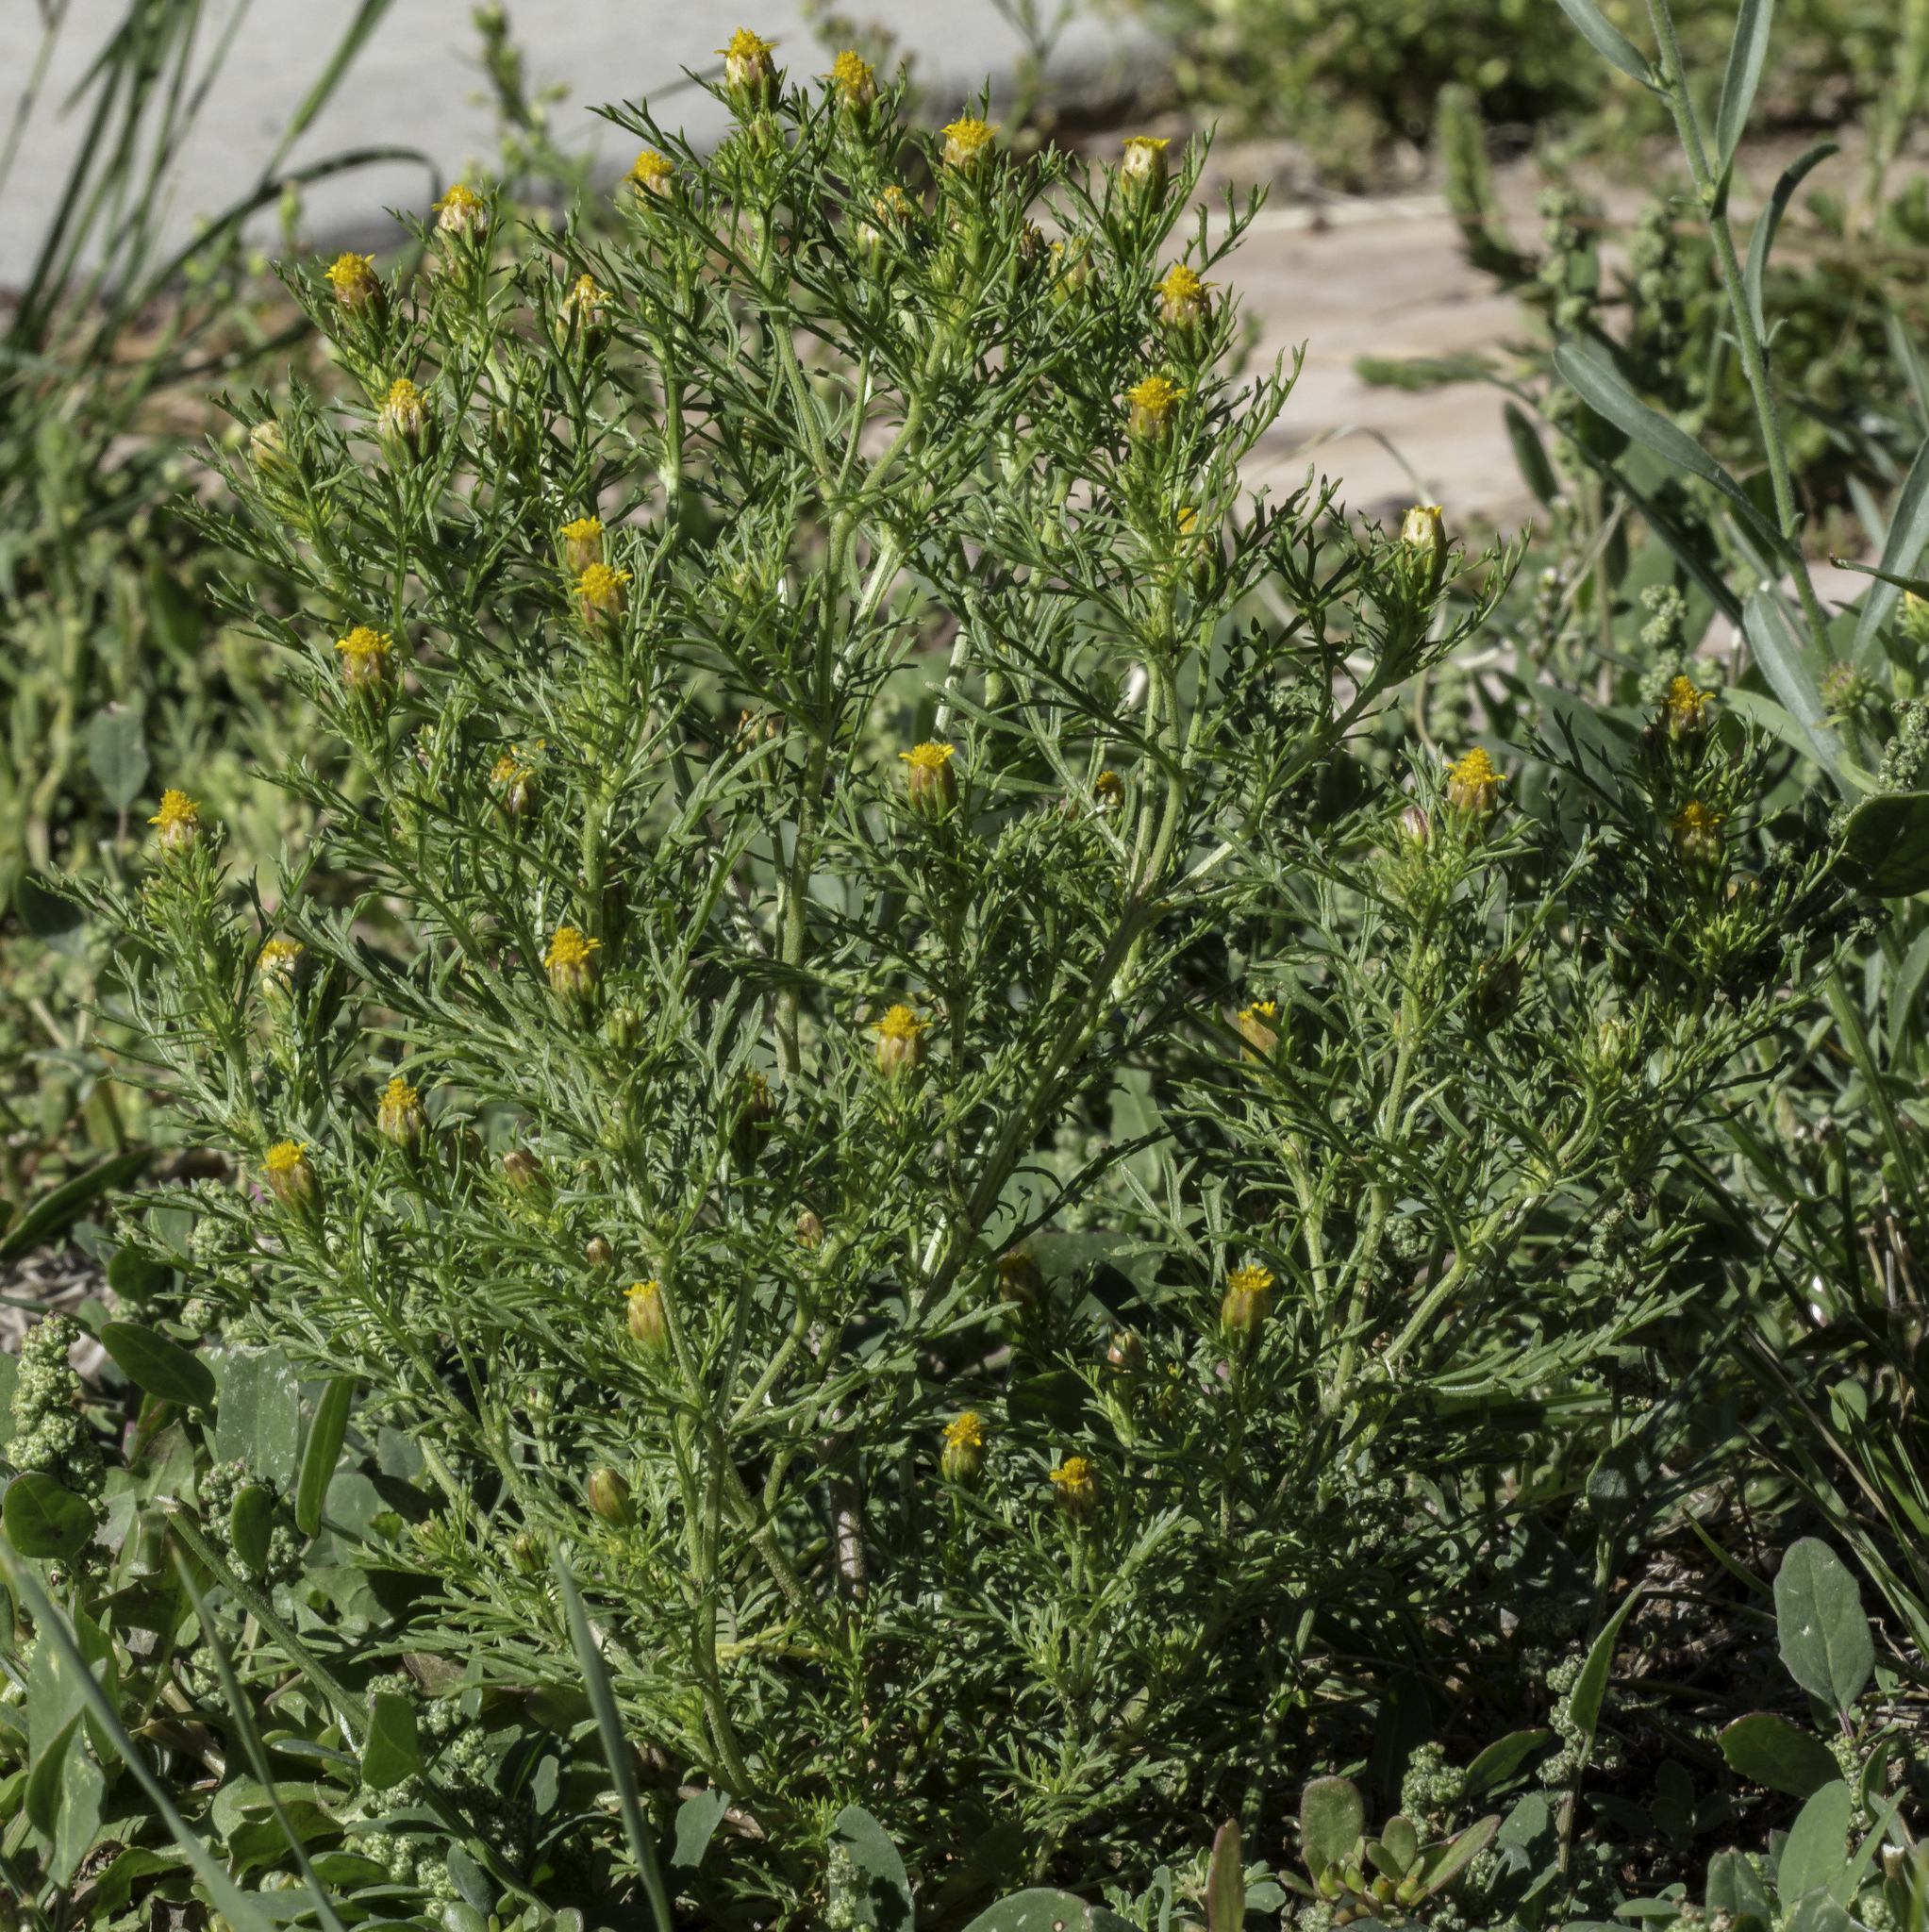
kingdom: Plantae
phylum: Tracheophyta
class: Magnoliopsida
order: Asterales
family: Asteraceae
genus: Dyssodia
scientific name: Dyssodia papposa
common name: Dogweed
